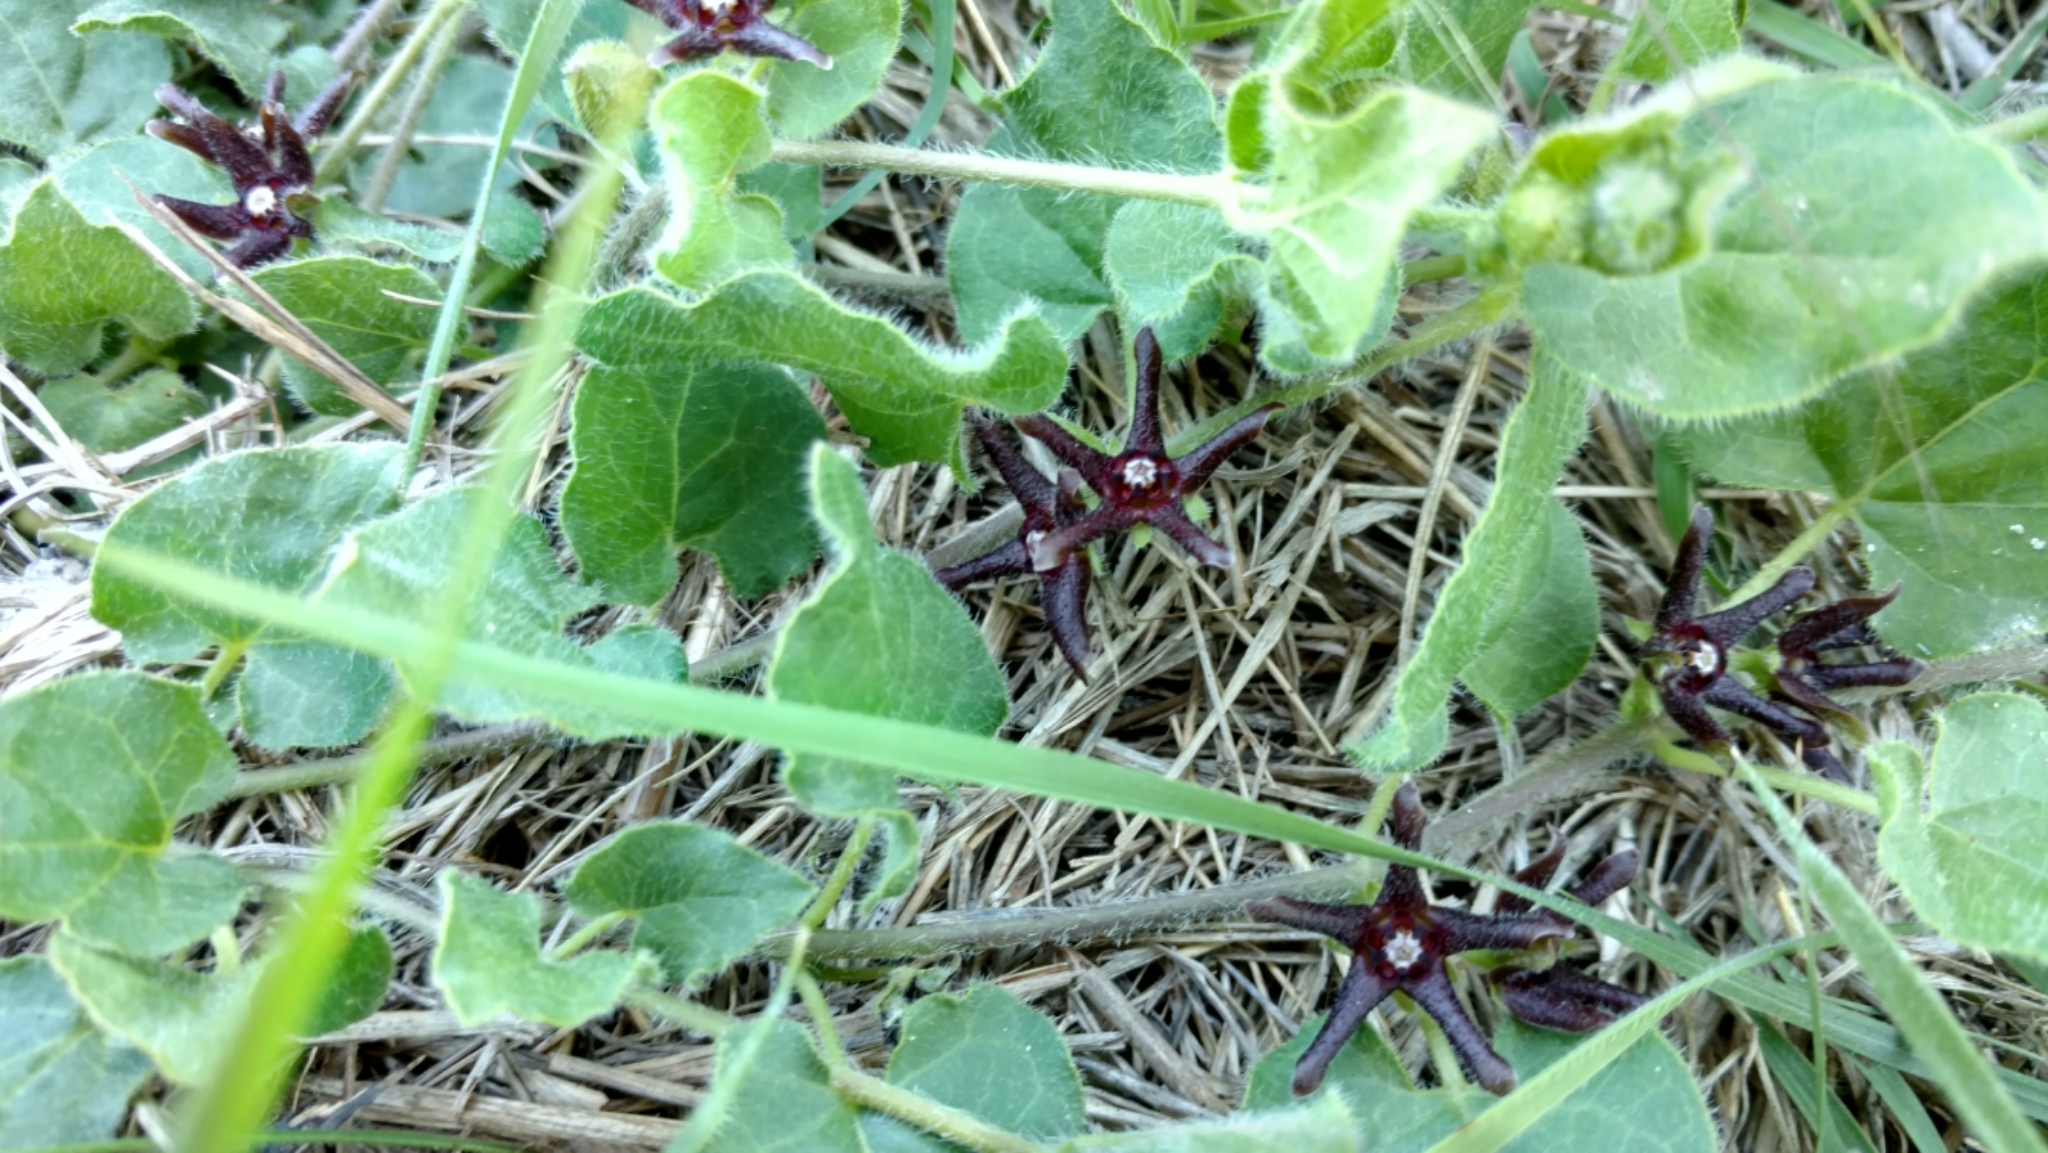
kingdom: Plantae
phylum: Tracheophyta
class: Magnoliopsida
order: Gentianales
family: Apocynaceae
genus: Chthamalia
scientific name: Chthamalia biflora
